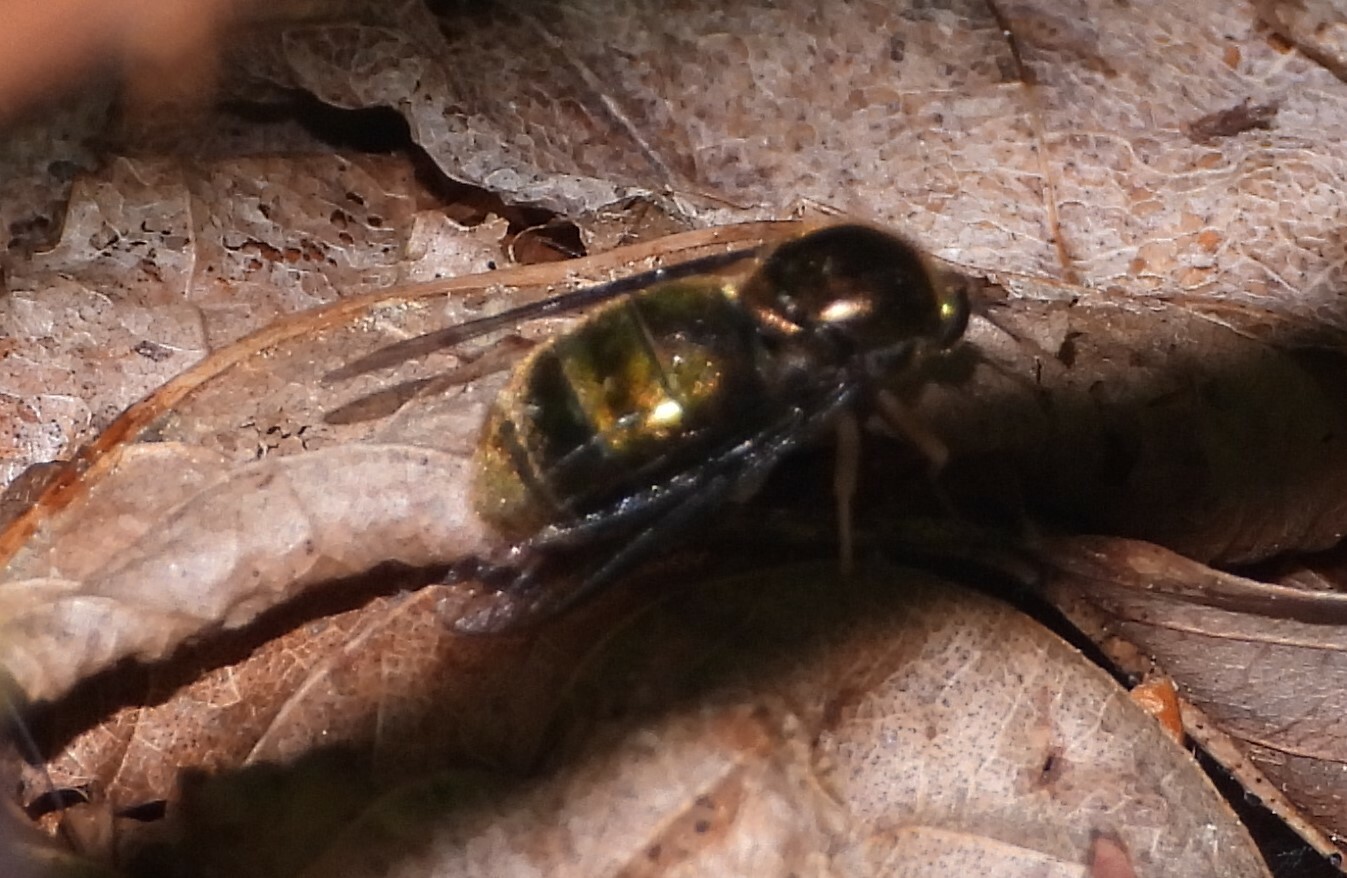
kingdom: Animalia
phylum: Arthropoda
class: Insecta
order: Diptera
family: Acroceridae
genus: Eulonchus
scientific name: Eulonchus marialiciae
